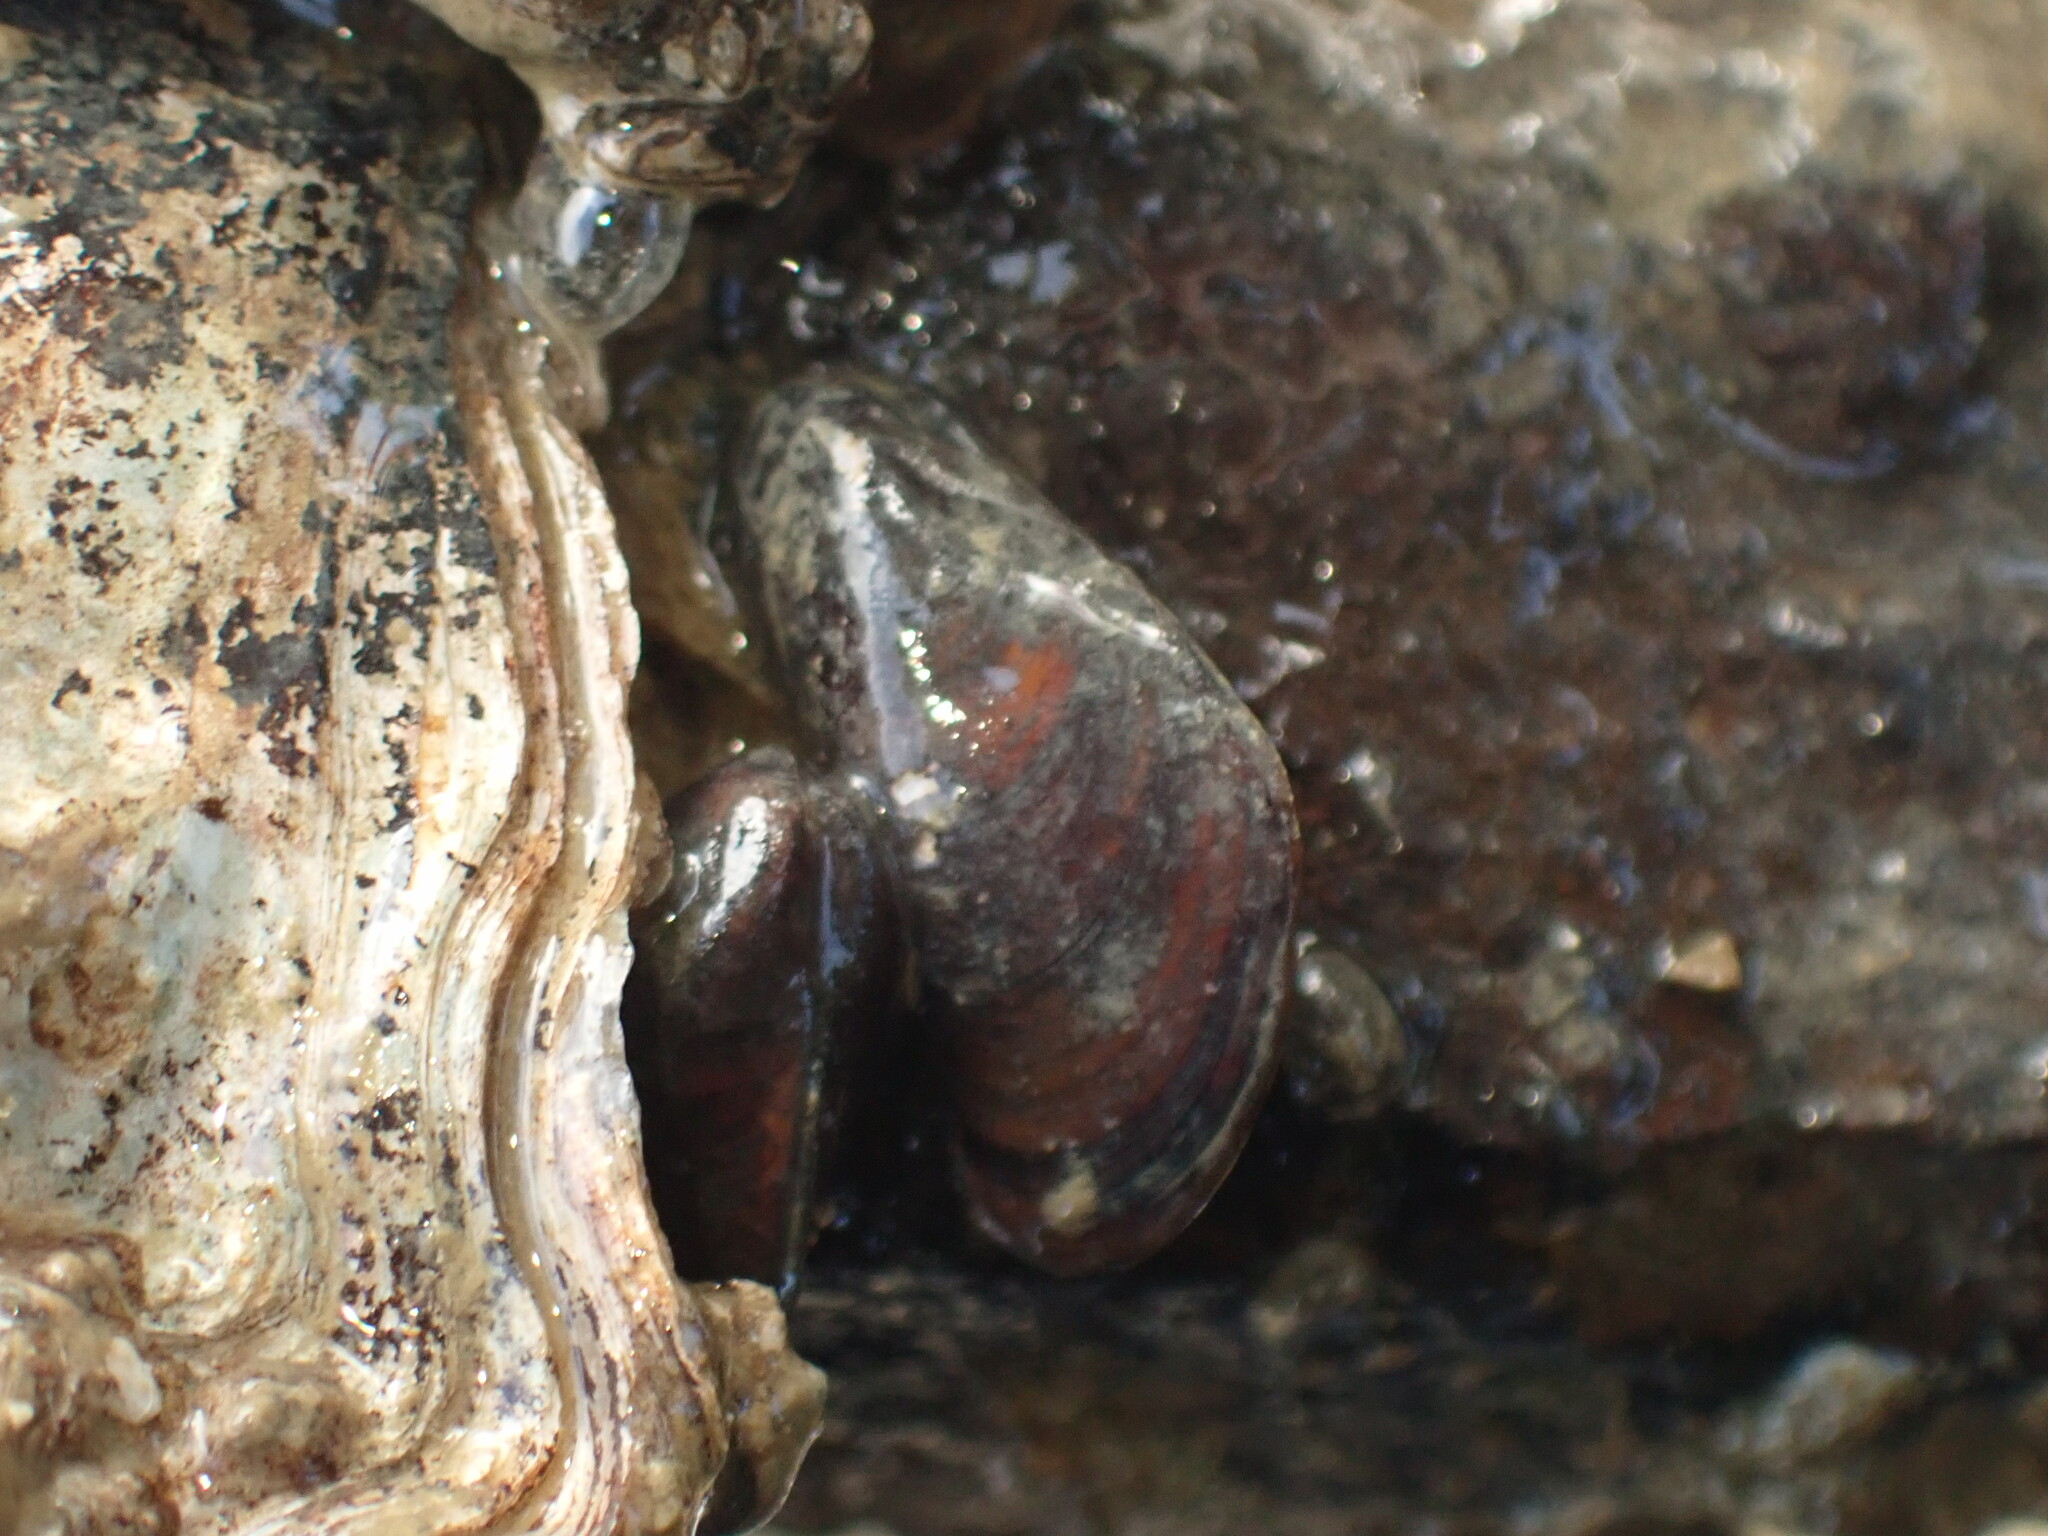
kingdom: Animalia
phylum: Mollusca
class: Bivalvia
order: Mytilida
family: Mytilidae
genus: Xenostrobus
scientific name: Xenostrobus securis
